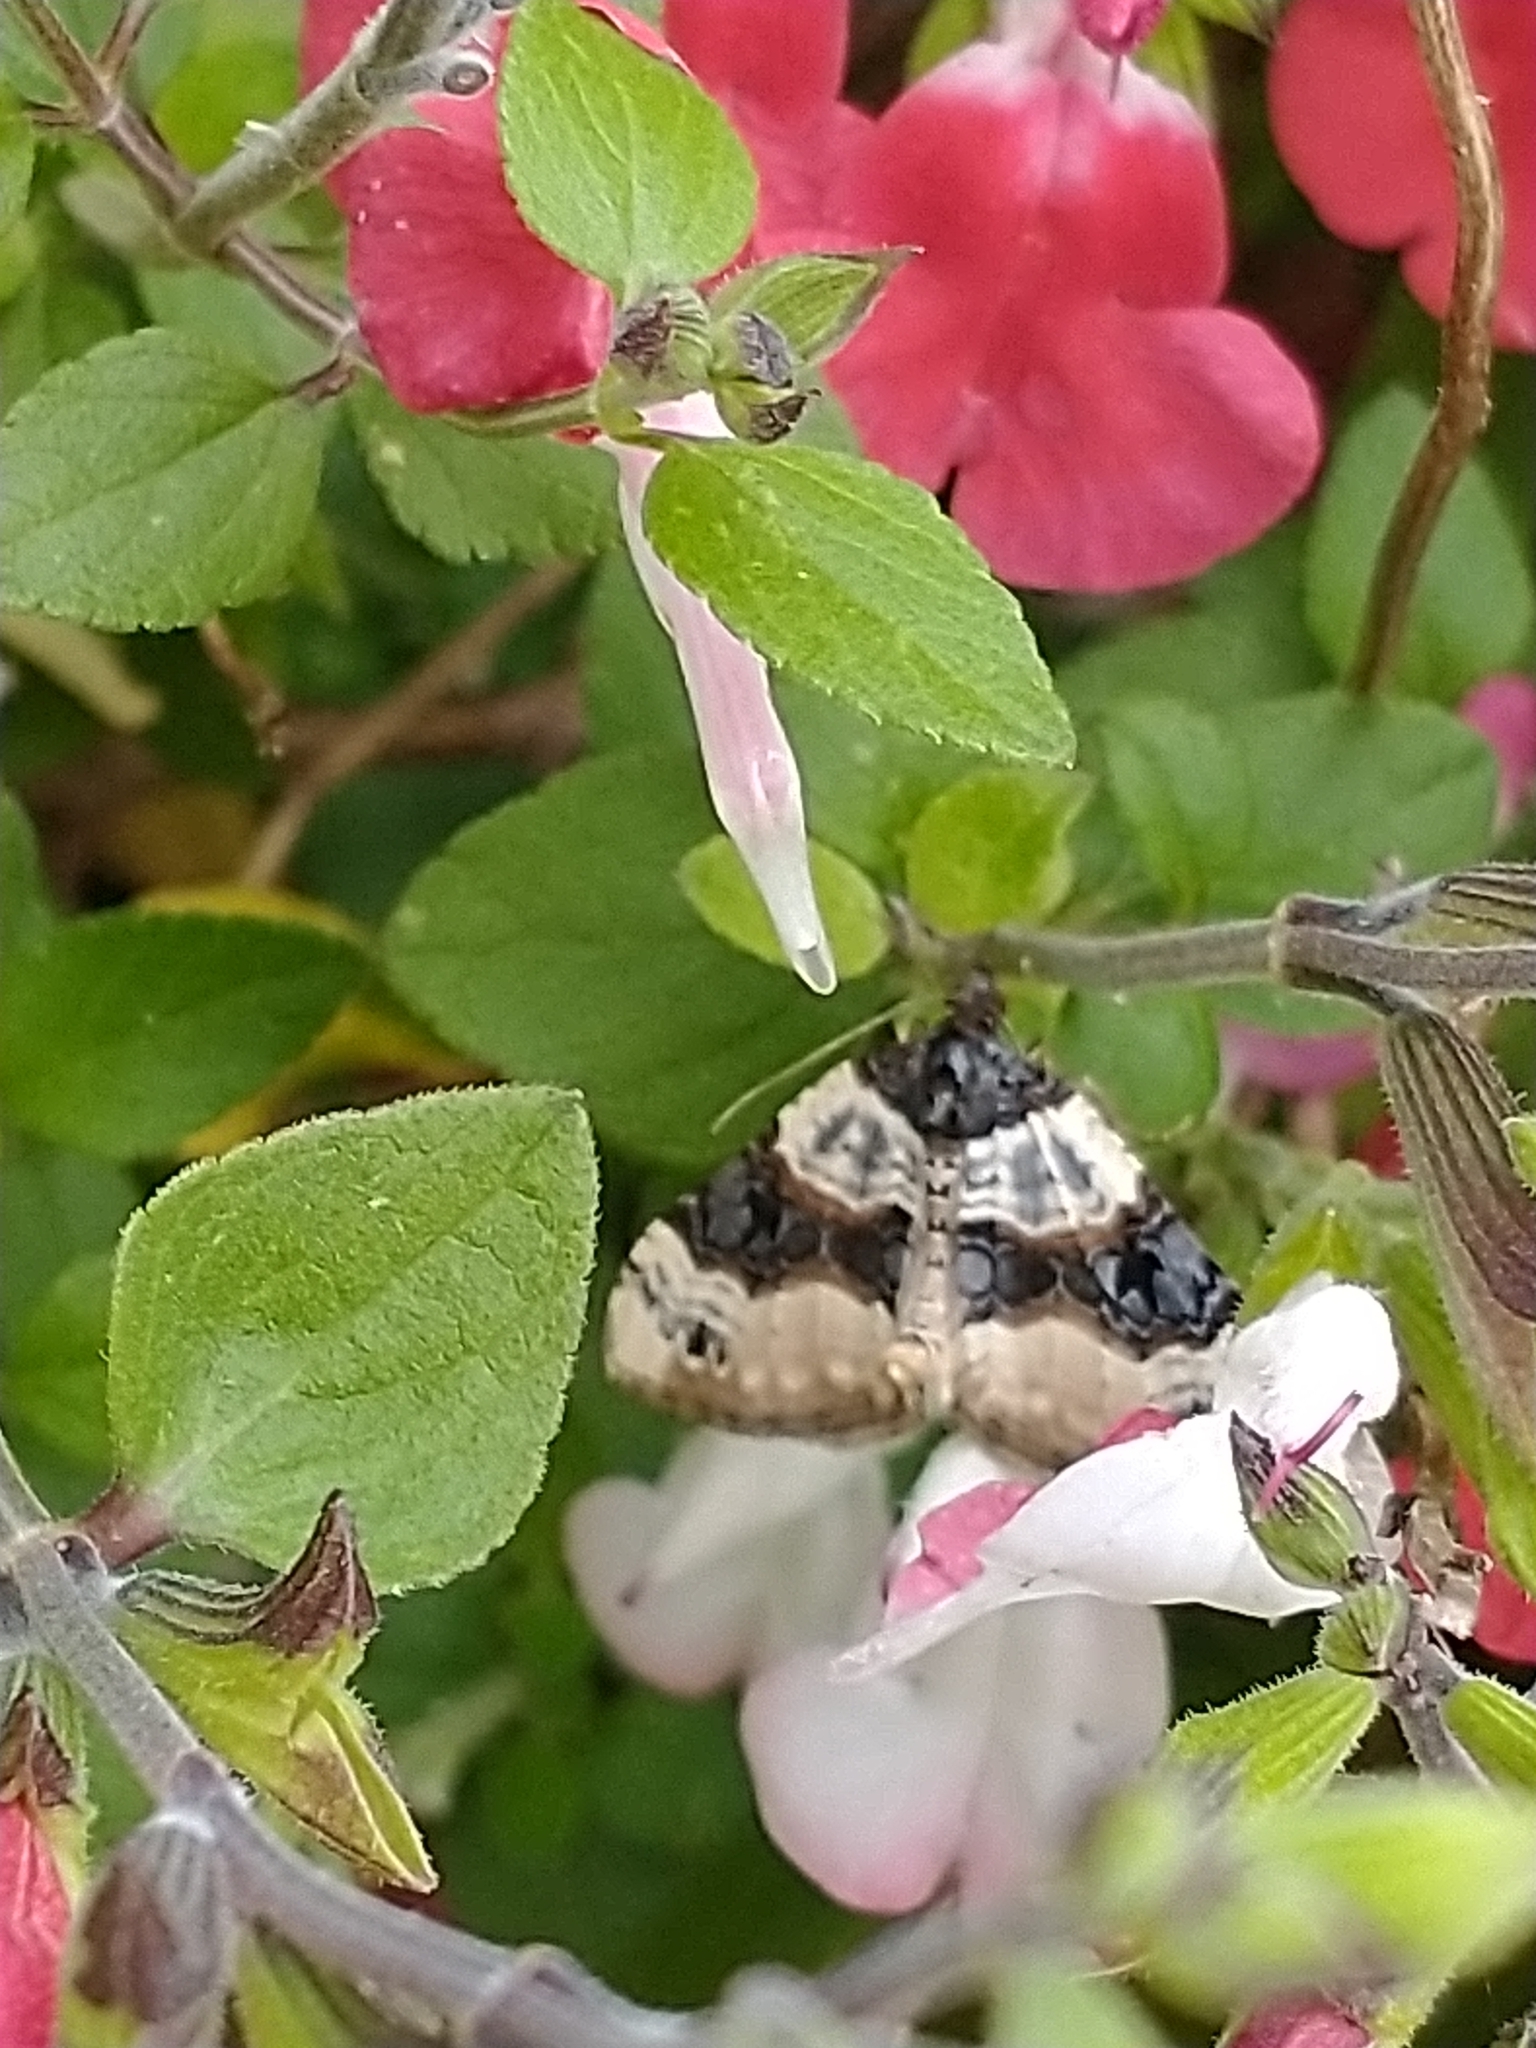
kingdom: Animalia
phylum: Arthropoda
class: Insecta
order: Lepidoptera
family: Geometridae
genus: Cosmorhoe
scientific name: Cosmorhoe ocellata
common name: Purple bar
